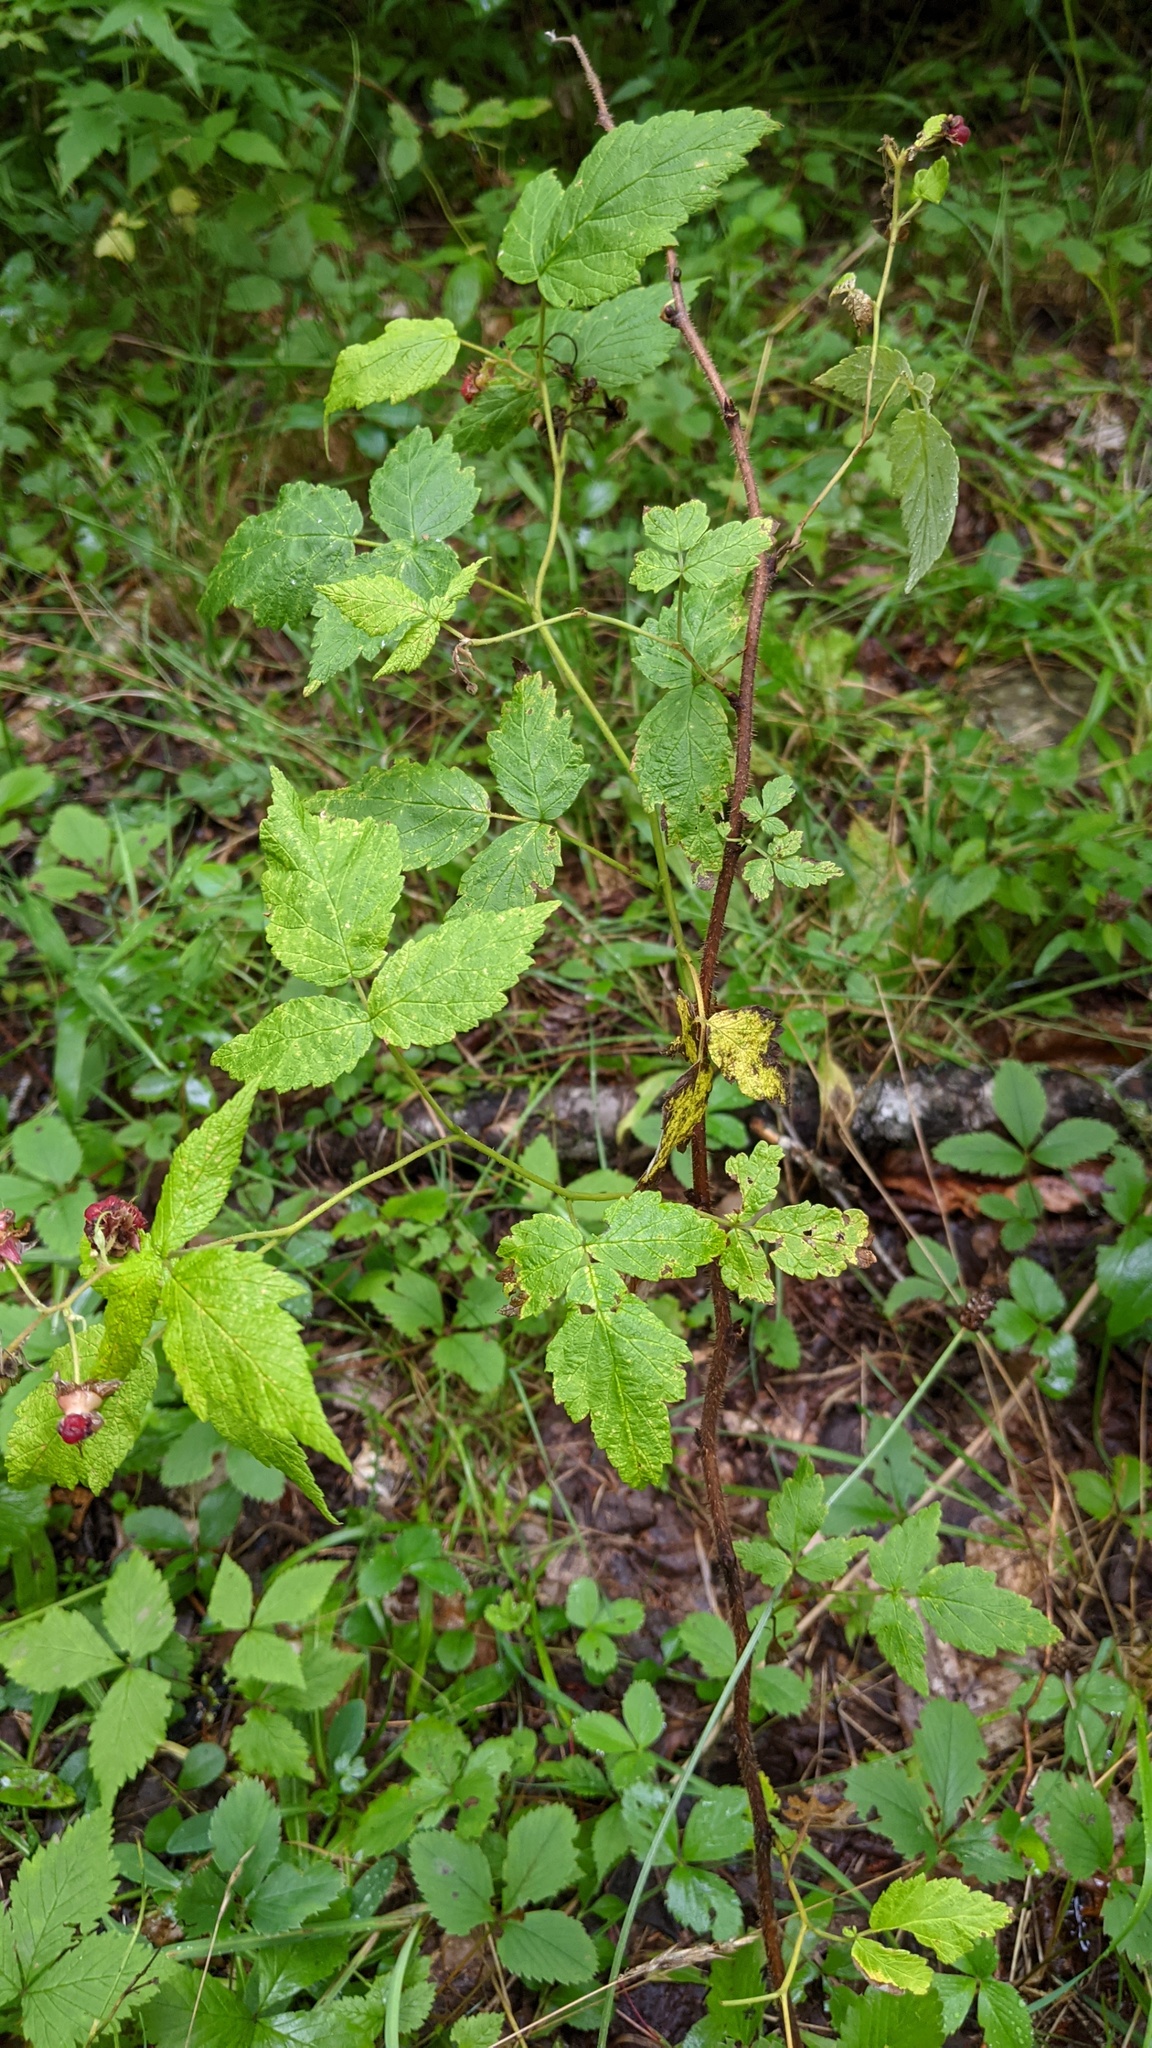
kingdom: Plantae
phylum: Tracheophyta
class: Magnoliopsida
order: Rosales
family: Rosaceae
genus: Rubus
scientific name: Rubus idaeus
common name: Raspberry
